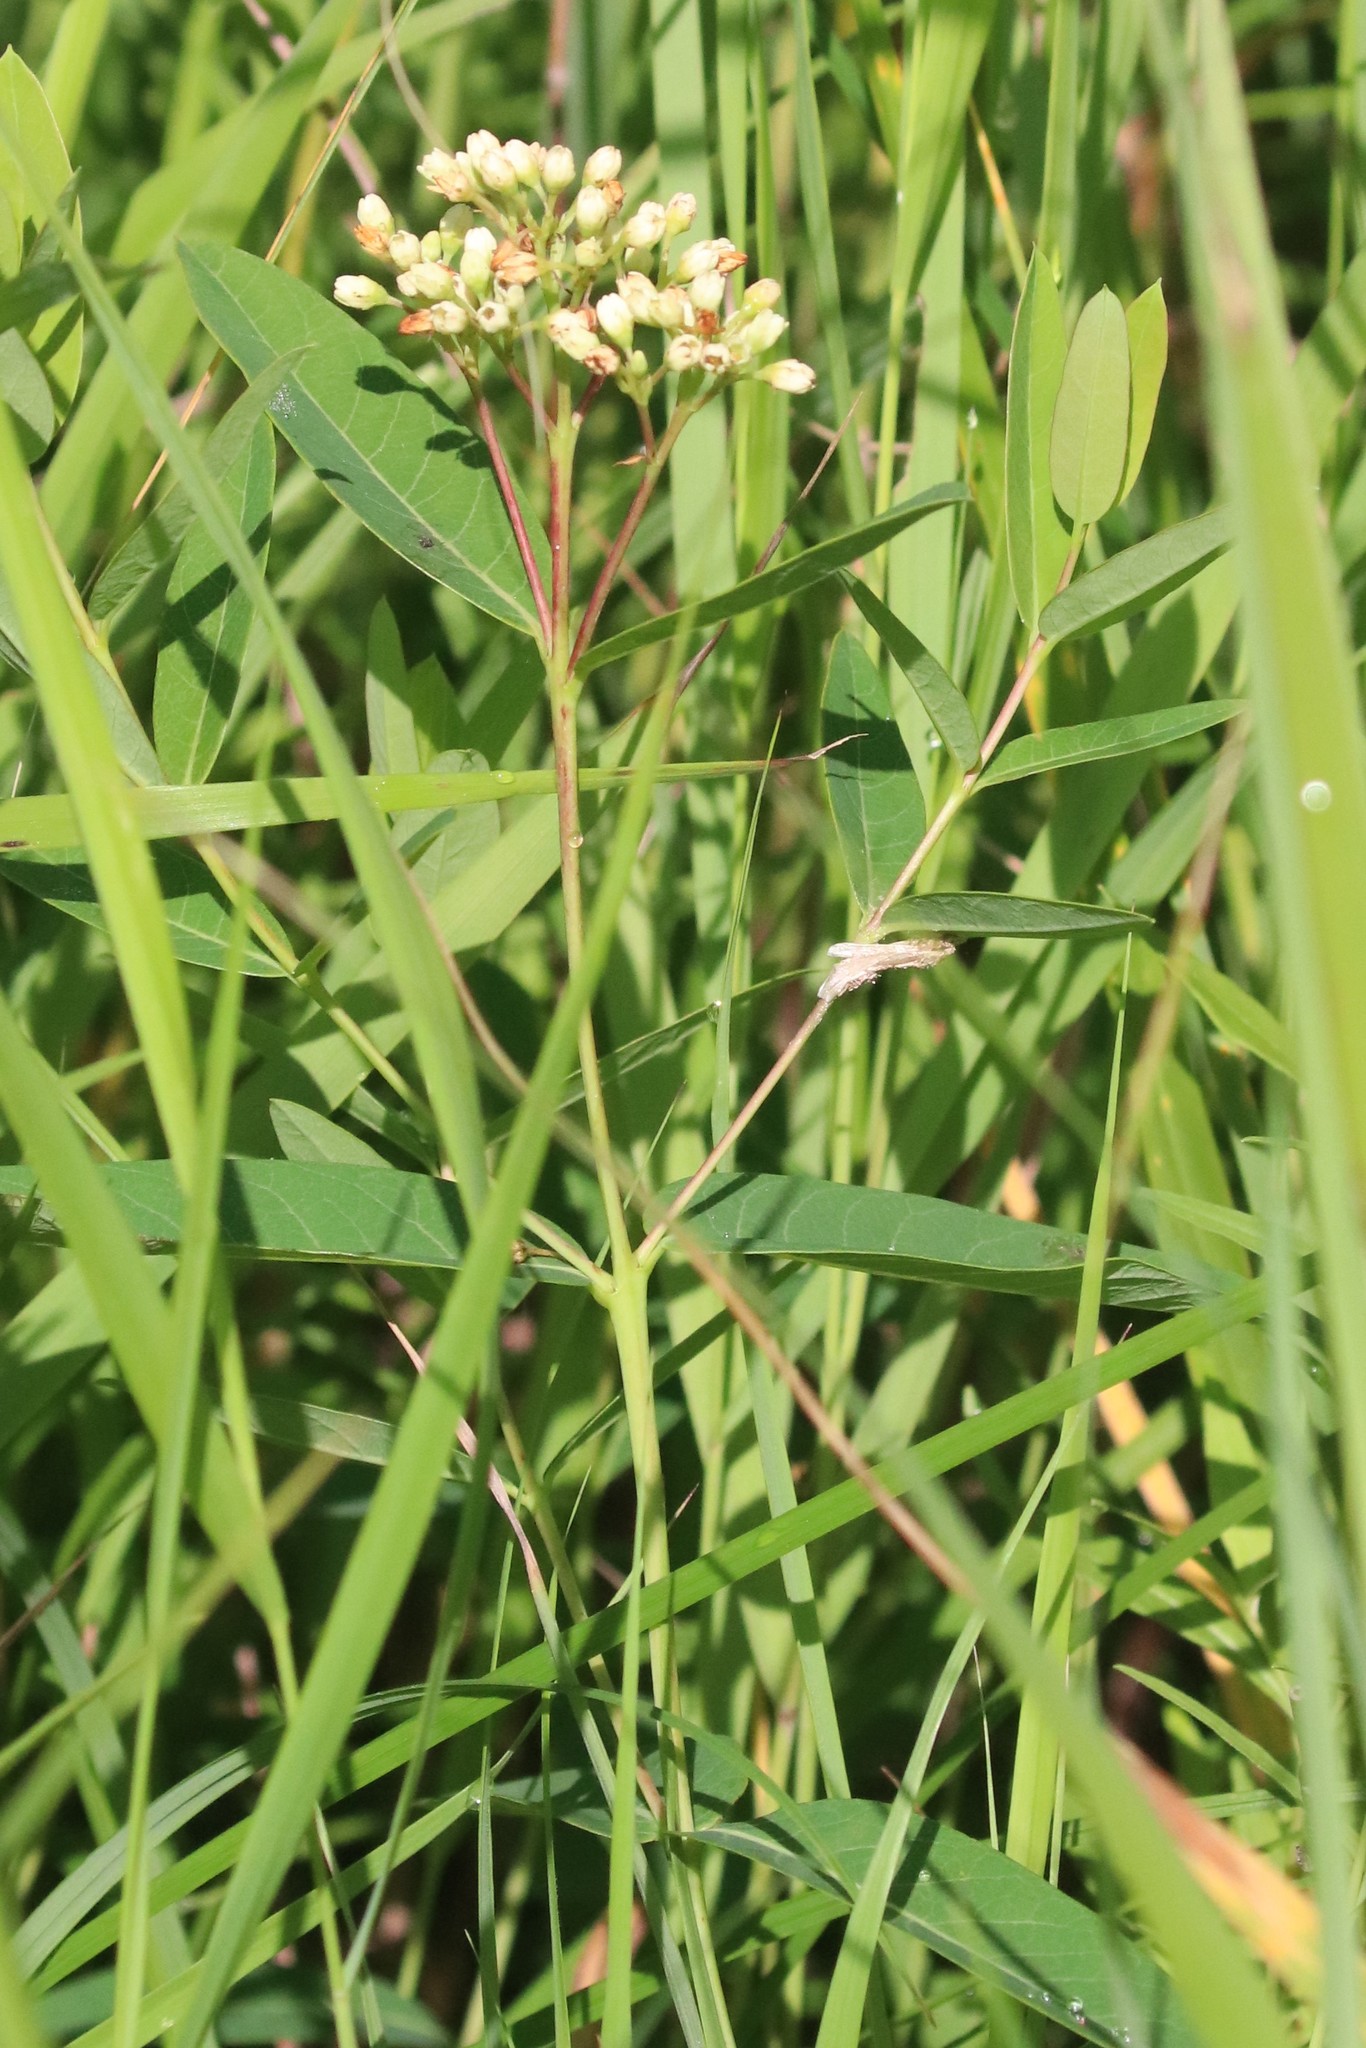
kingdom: Plantae
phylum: Tracheophyta
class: Magnoliopsida
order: Gentianales
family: Apocynaceae
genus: Apocynum
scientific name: Apocynum cannabinum
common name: Hemp dogbane
